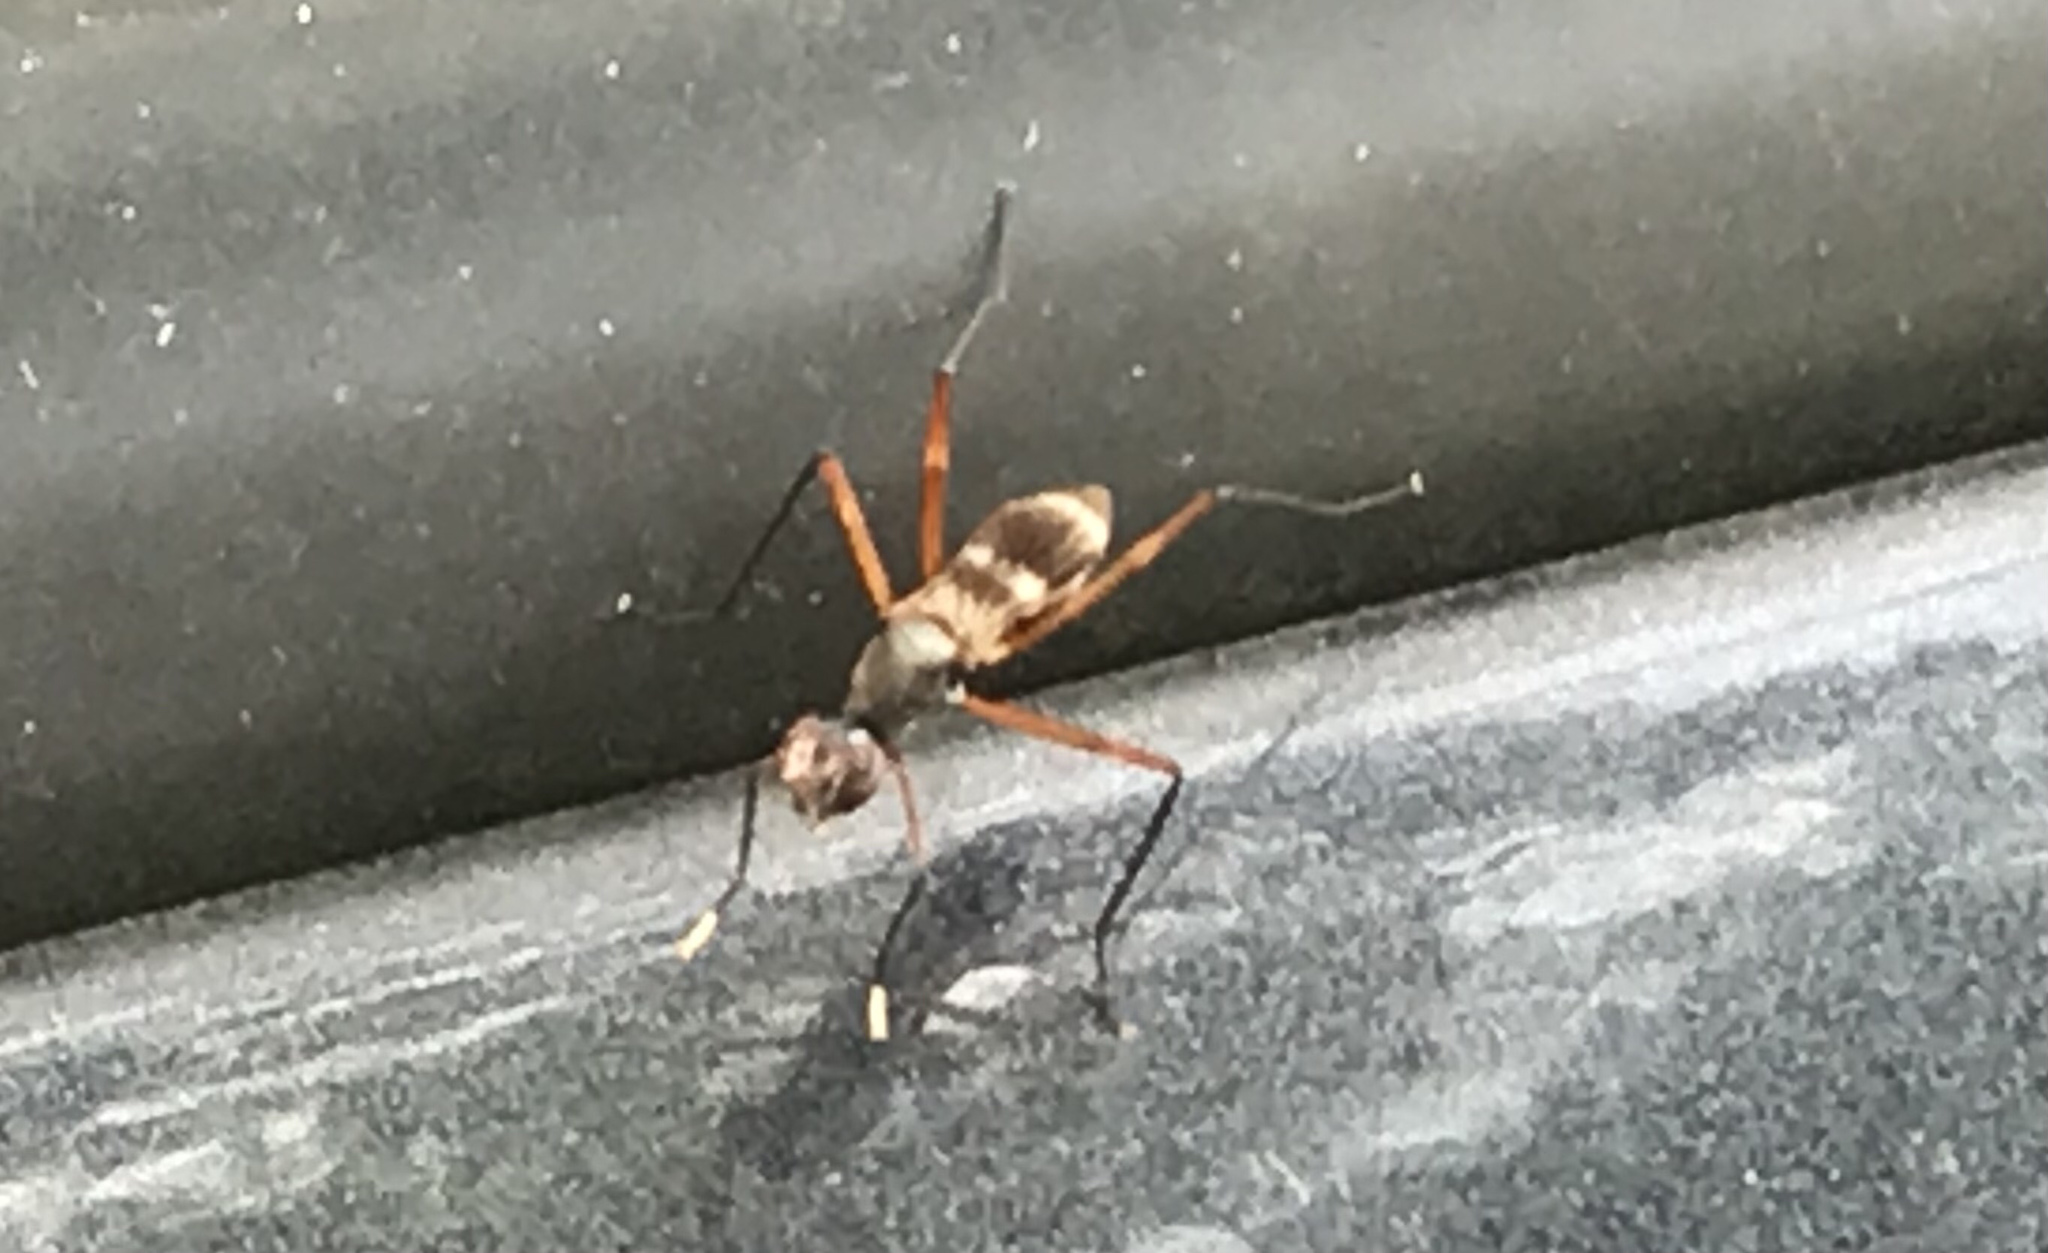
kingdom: Animalia
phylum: Arthropoda
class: Insecta
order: Diptera
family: Micropezidae
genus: Taeniaptera
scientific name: Taeniaptera trivittata
